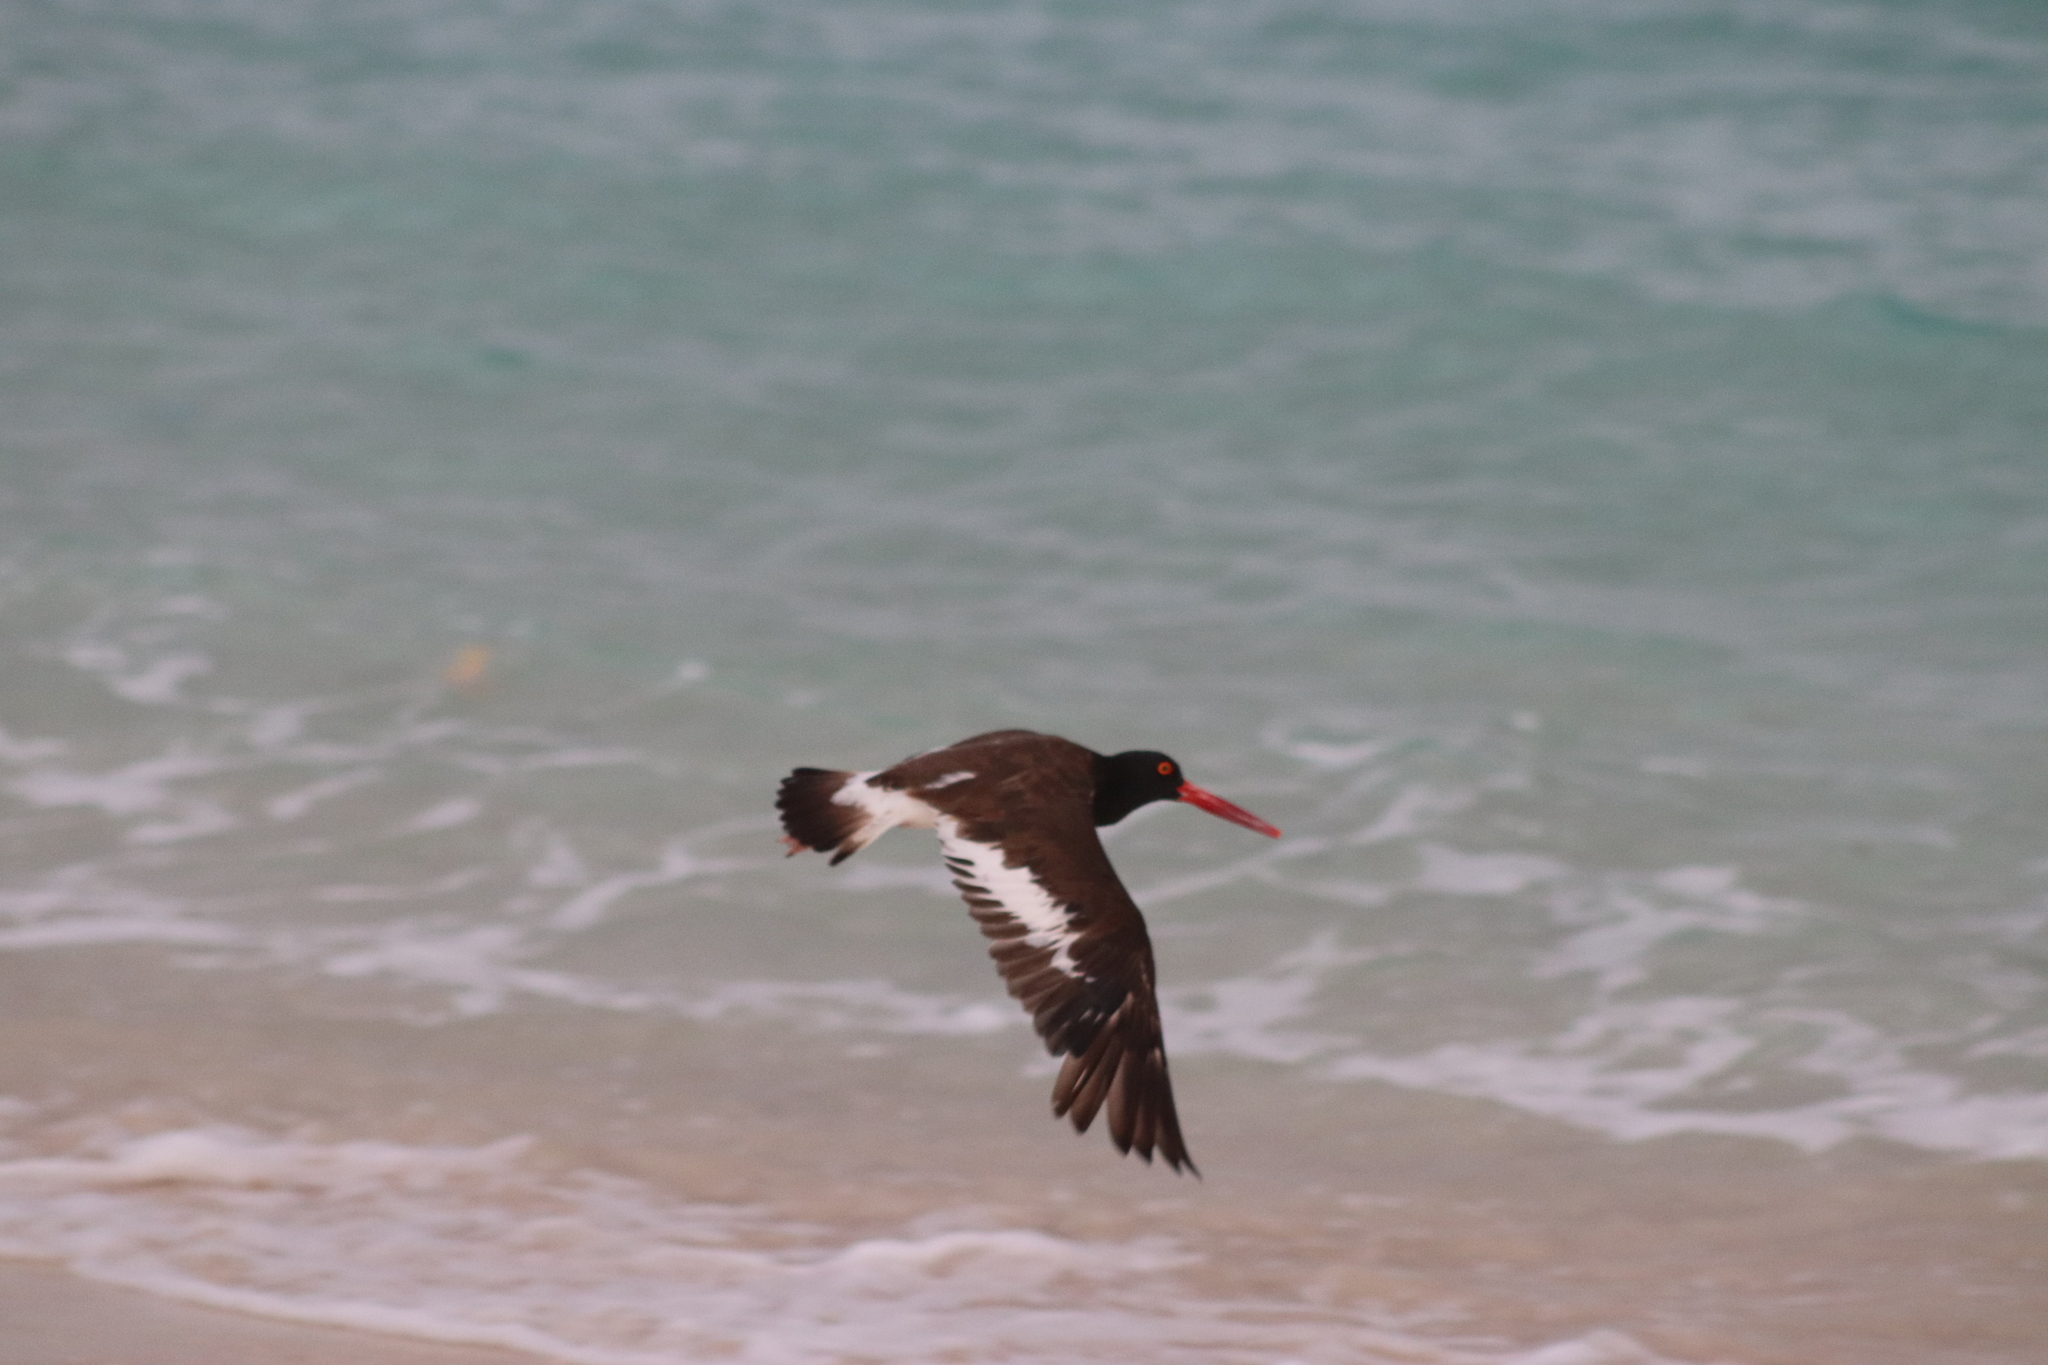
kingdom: Animalia
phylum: Chordata
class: Aves
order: Charadriiformes
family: Haematopodidae
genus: Haematopus
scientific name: Haematopus palliatus
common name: American oystercatcher
